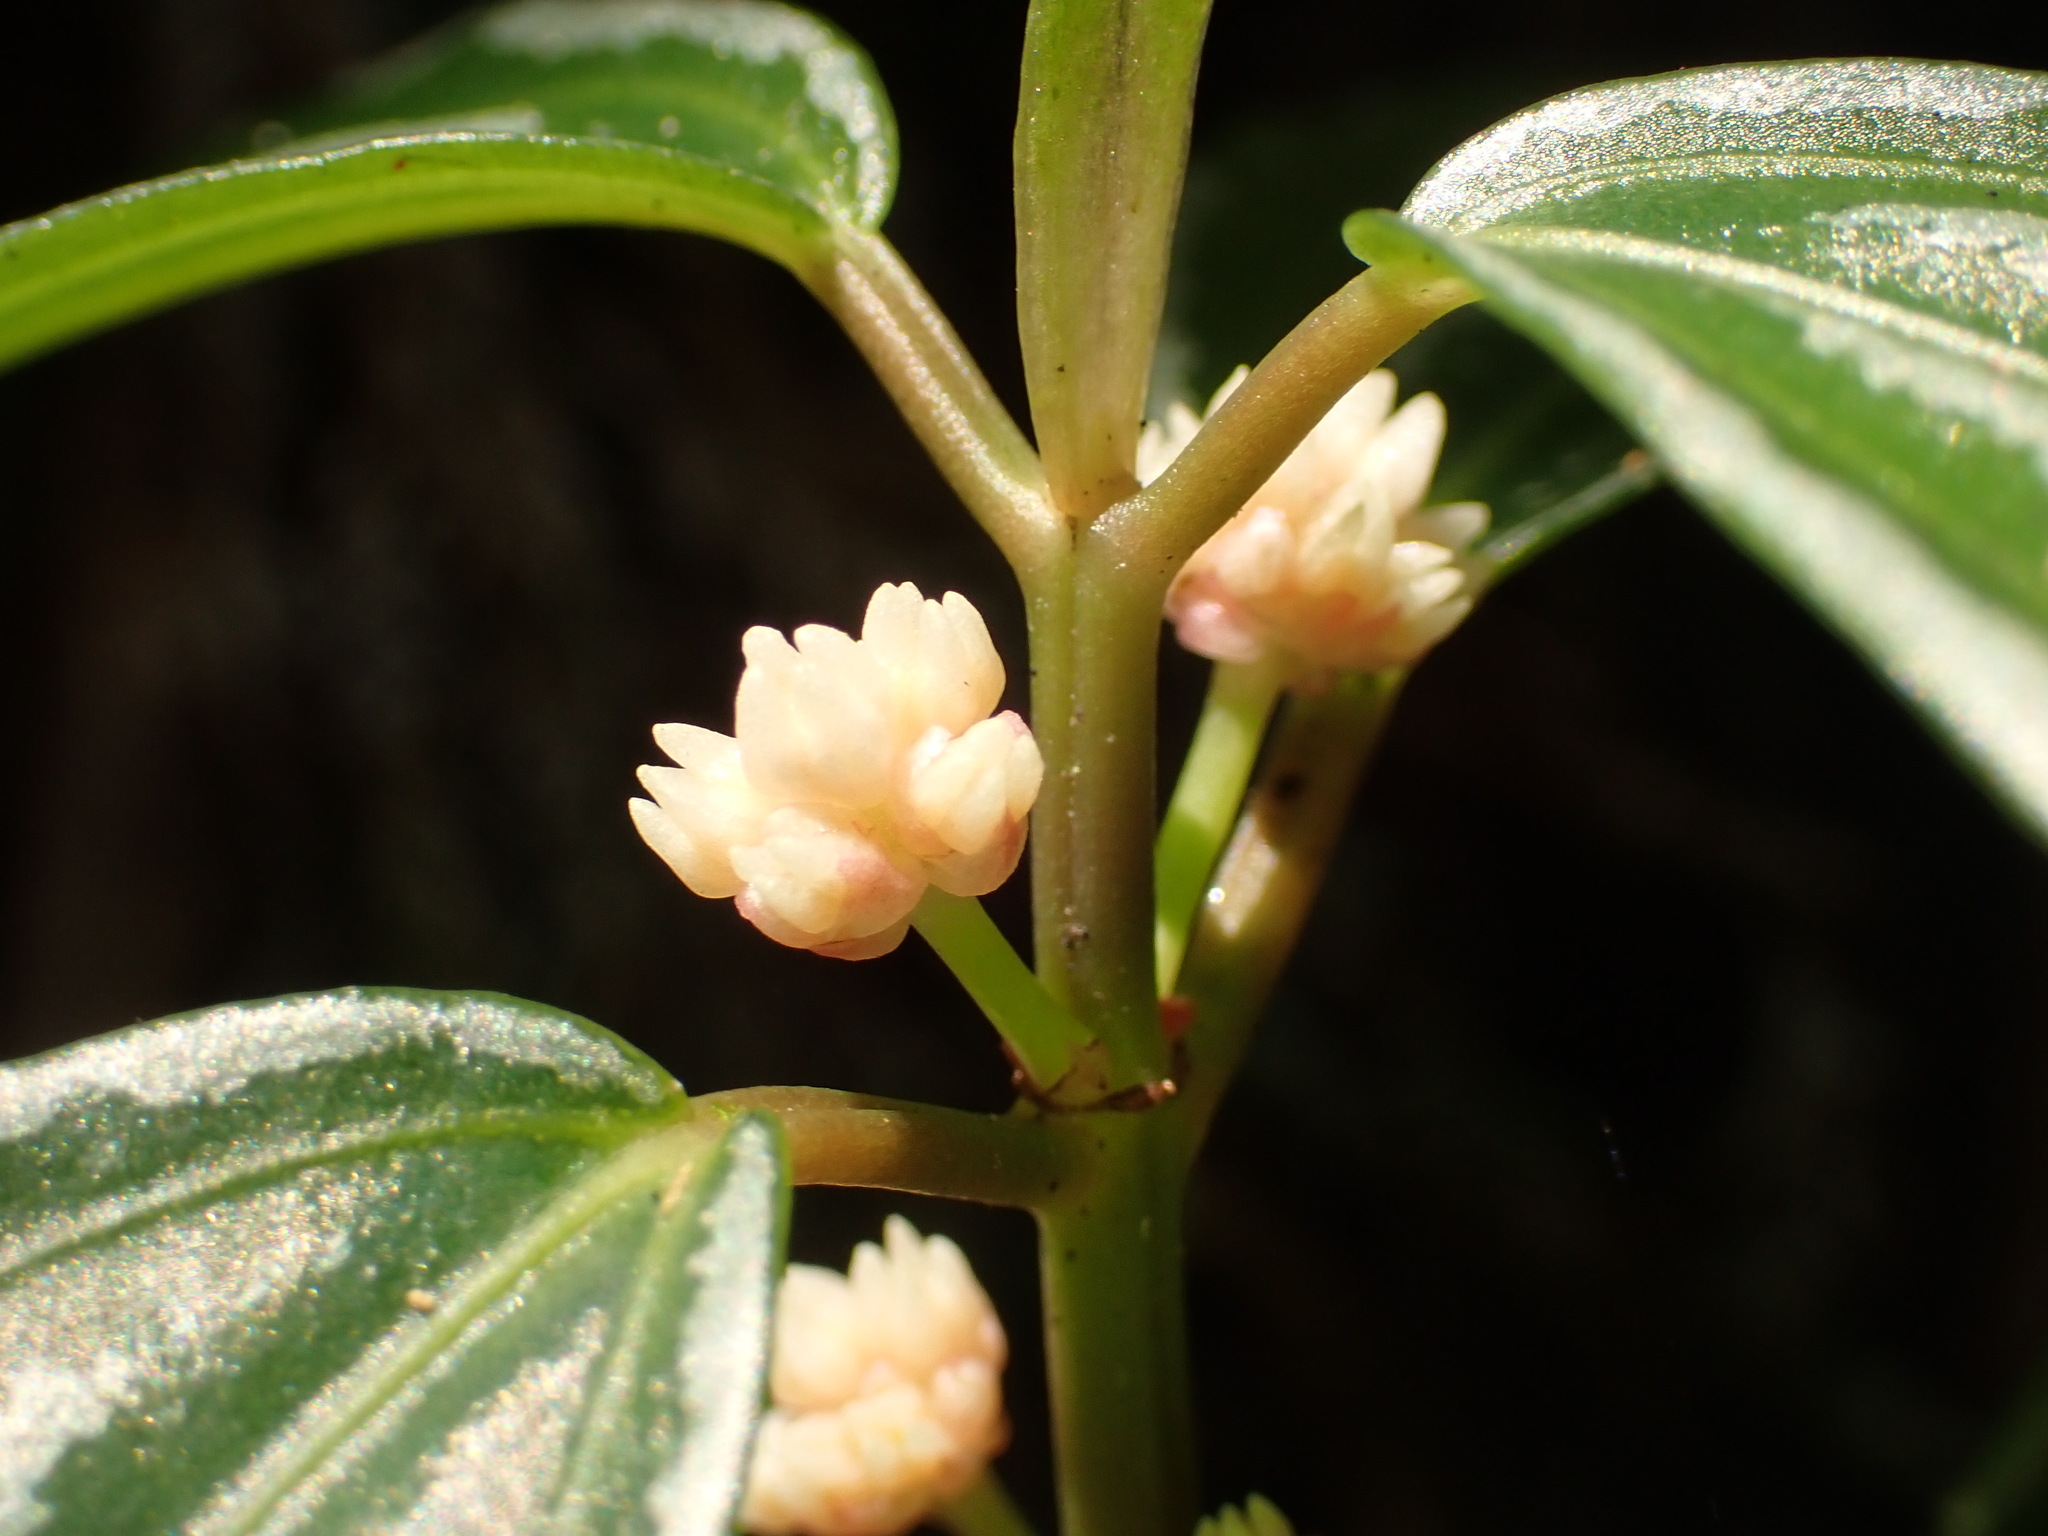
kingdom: Plantae
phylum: Tracheophyta
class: Magnoliopsida
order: Rosales
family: Urticaceae
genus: Pilea
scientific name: Pilea cadierei
